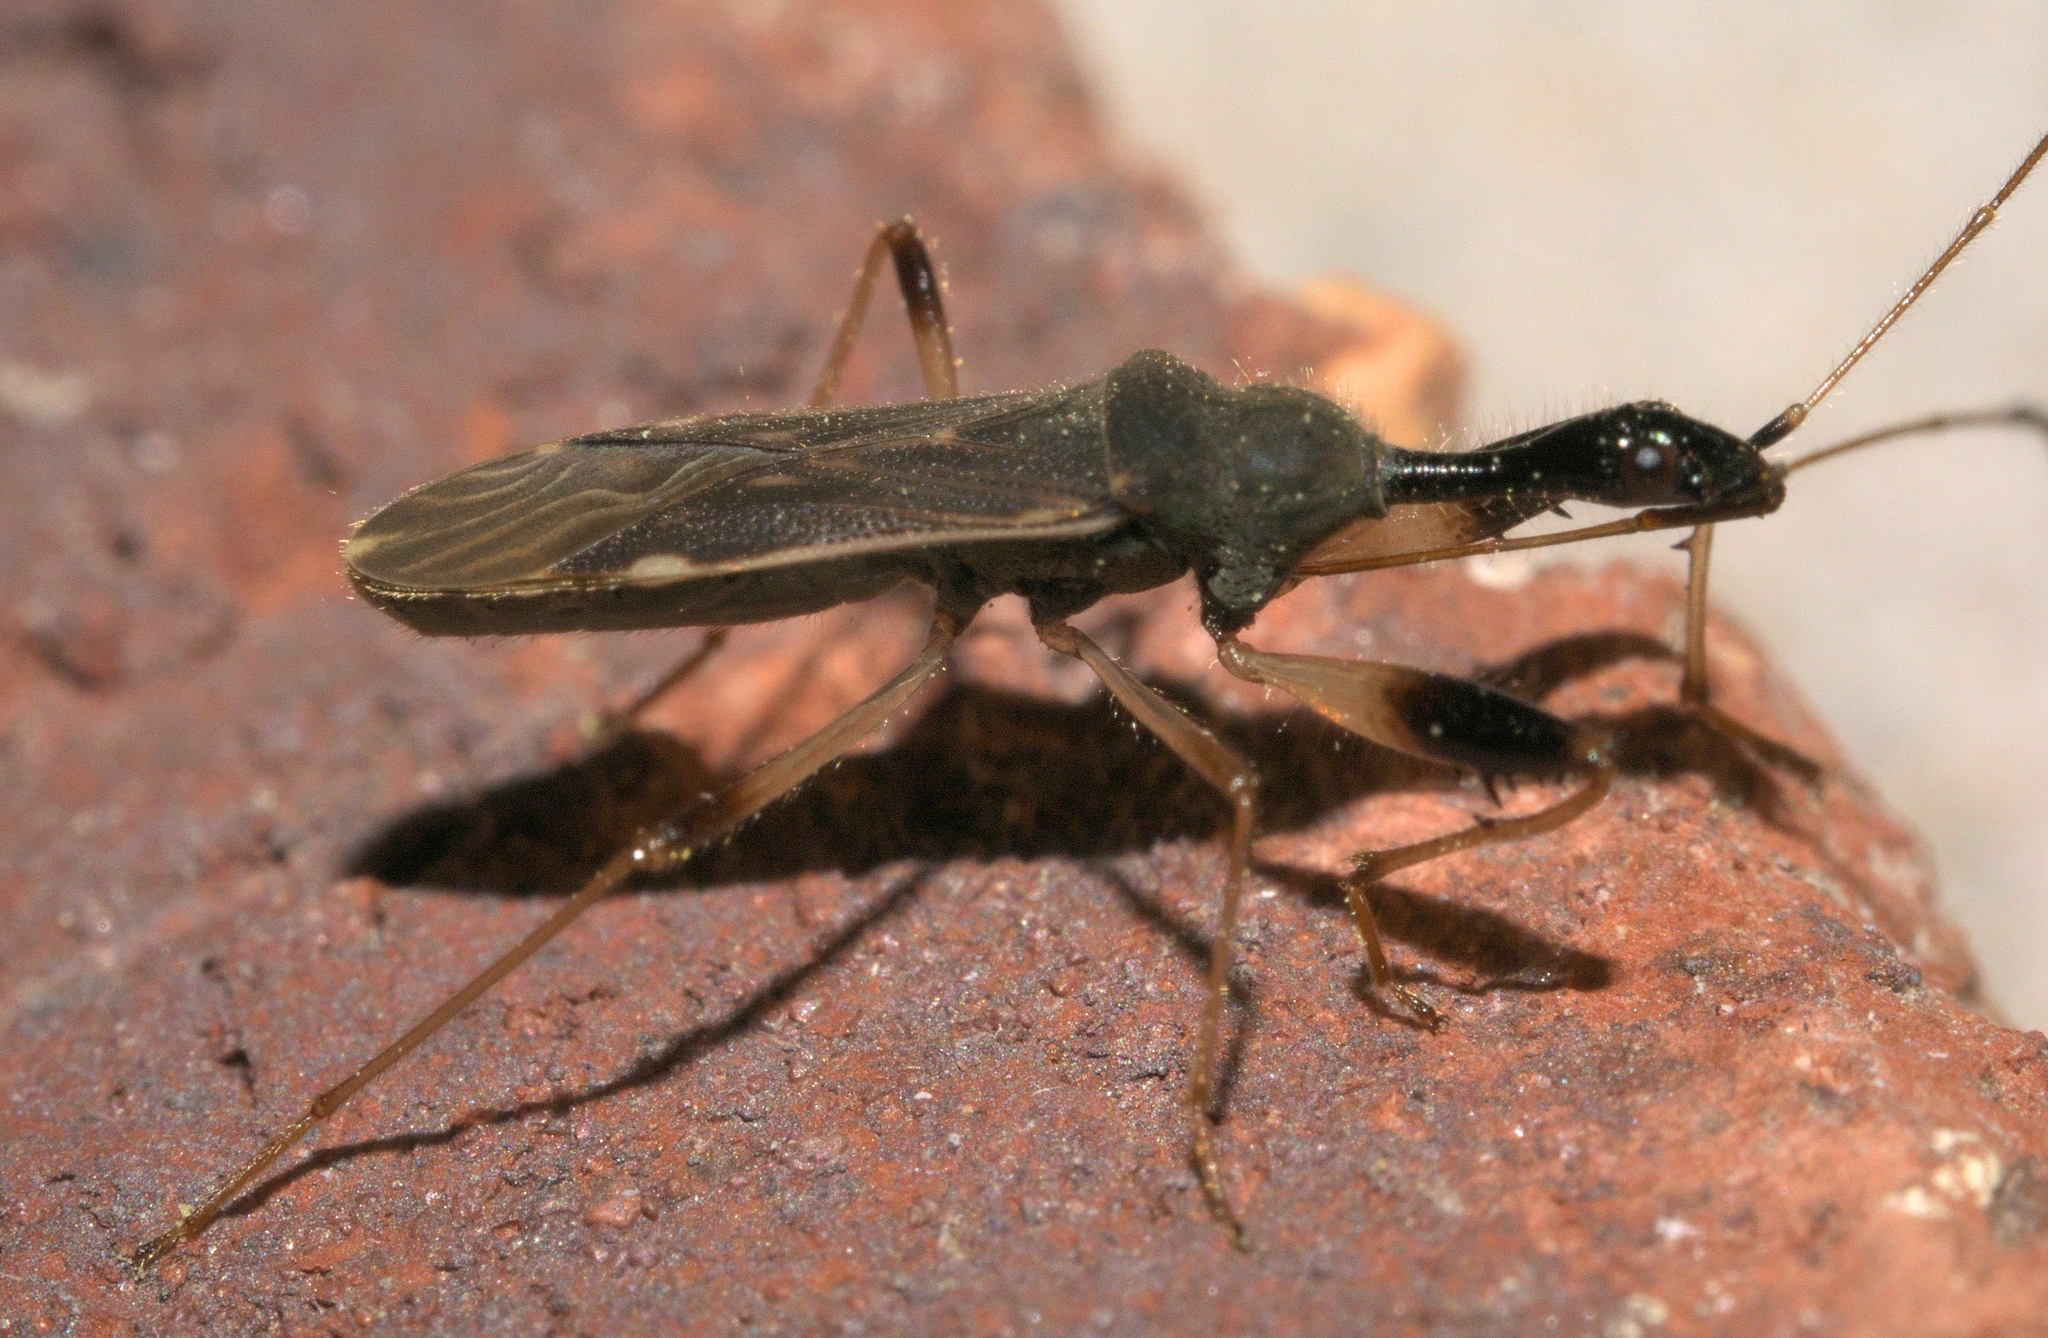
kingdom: Animalia
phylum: Arthropoda
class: Insecta
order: Hemiptera
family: Rhyparochromidae
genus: Myodocha
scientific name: Myodocha serripes
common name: Long-necked seed bug
